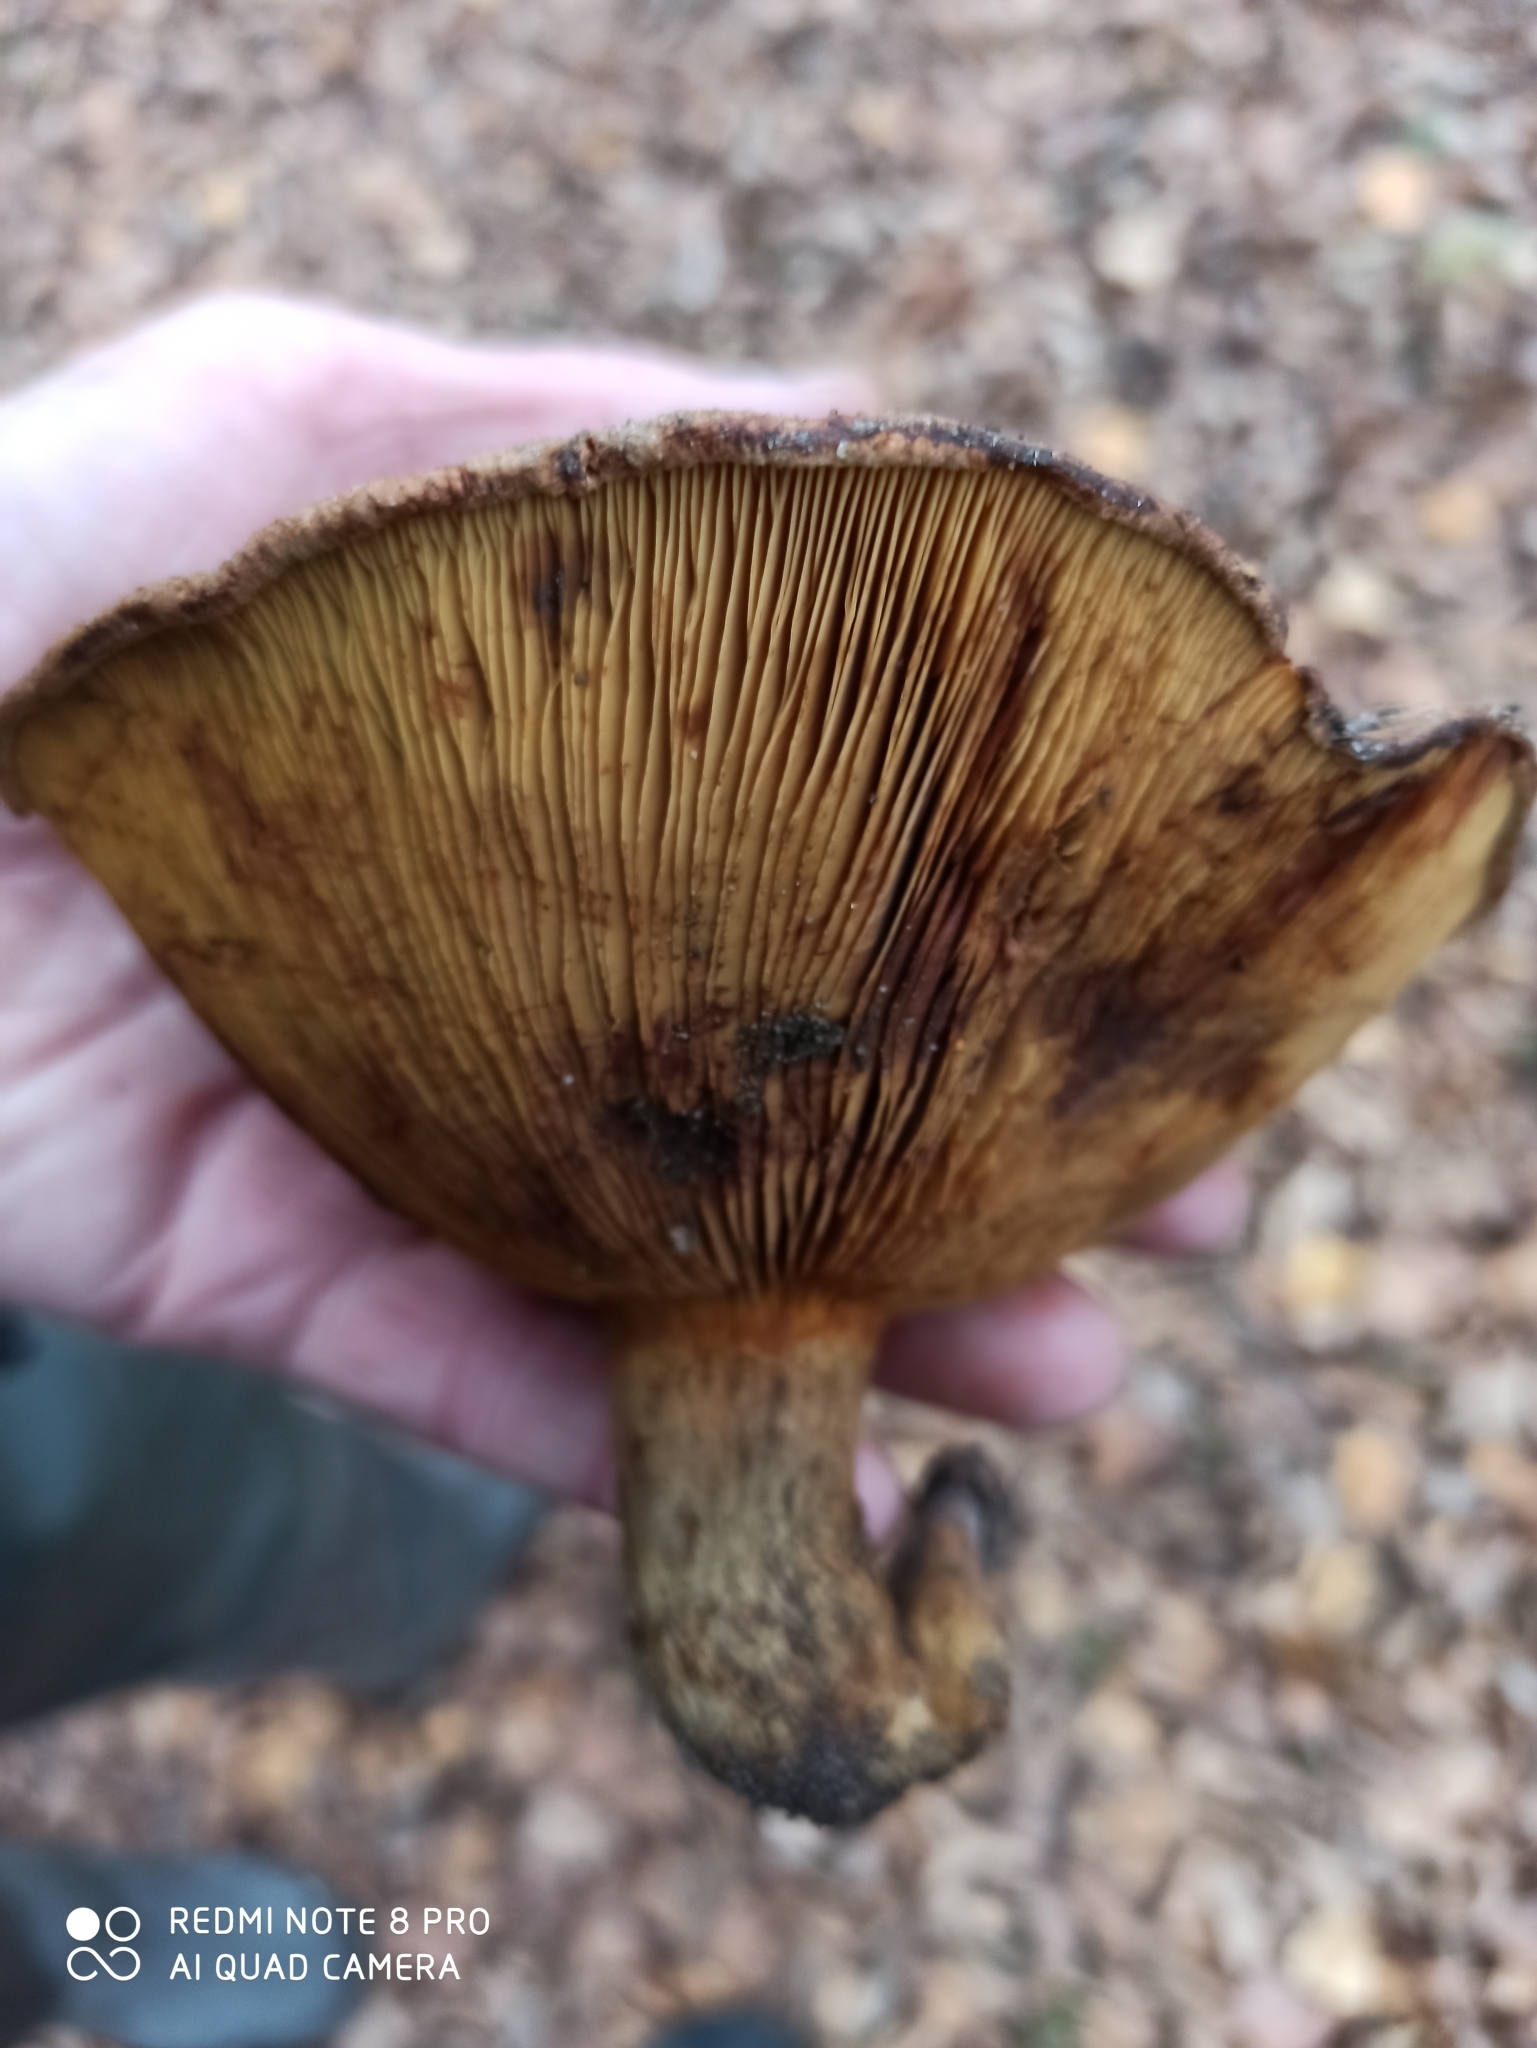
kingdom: Fungi
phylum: Basidiomycota
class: Agaricomycetes
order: Boletales
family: Paxillaceae
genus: Paxillus
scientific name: Paxillus involutus
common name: Brown roll rim
